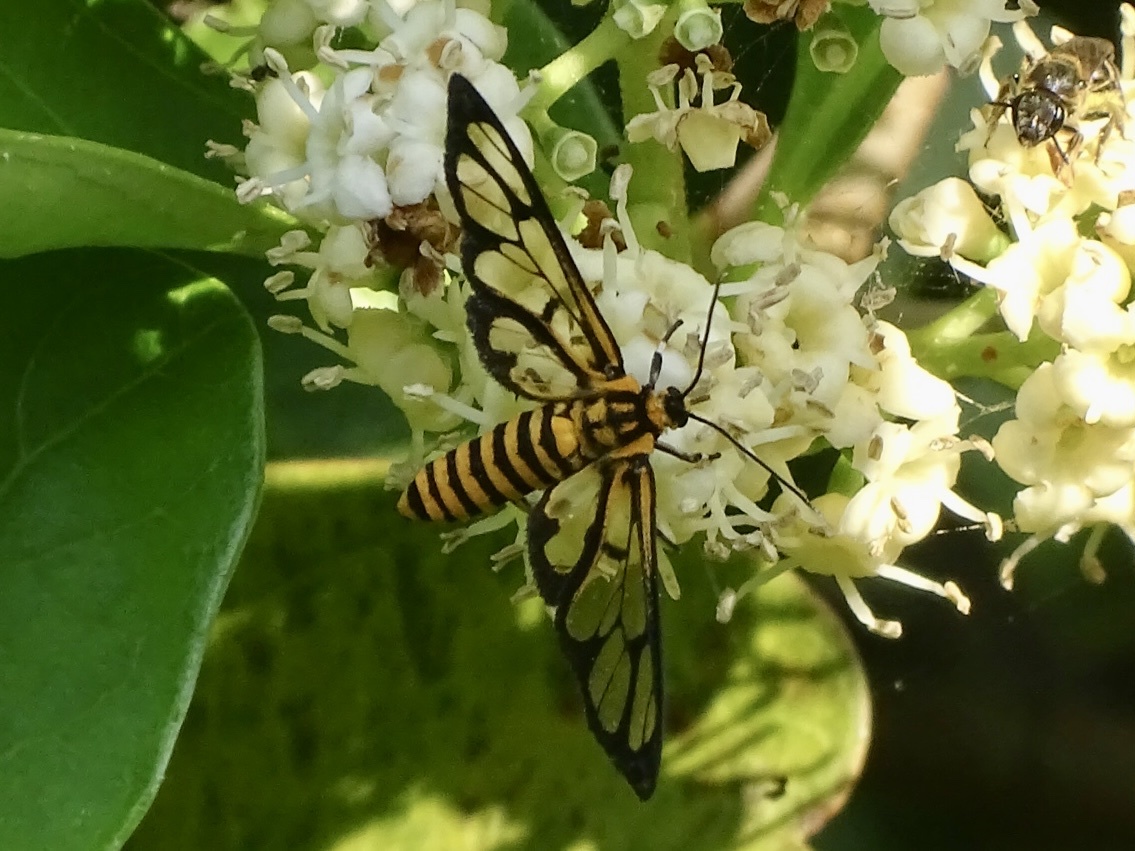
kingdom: Animalia
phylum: Arthropoda
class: Insecta
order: Lepidoptera
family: Erebidae
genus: Amata
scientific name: Amata grotei
